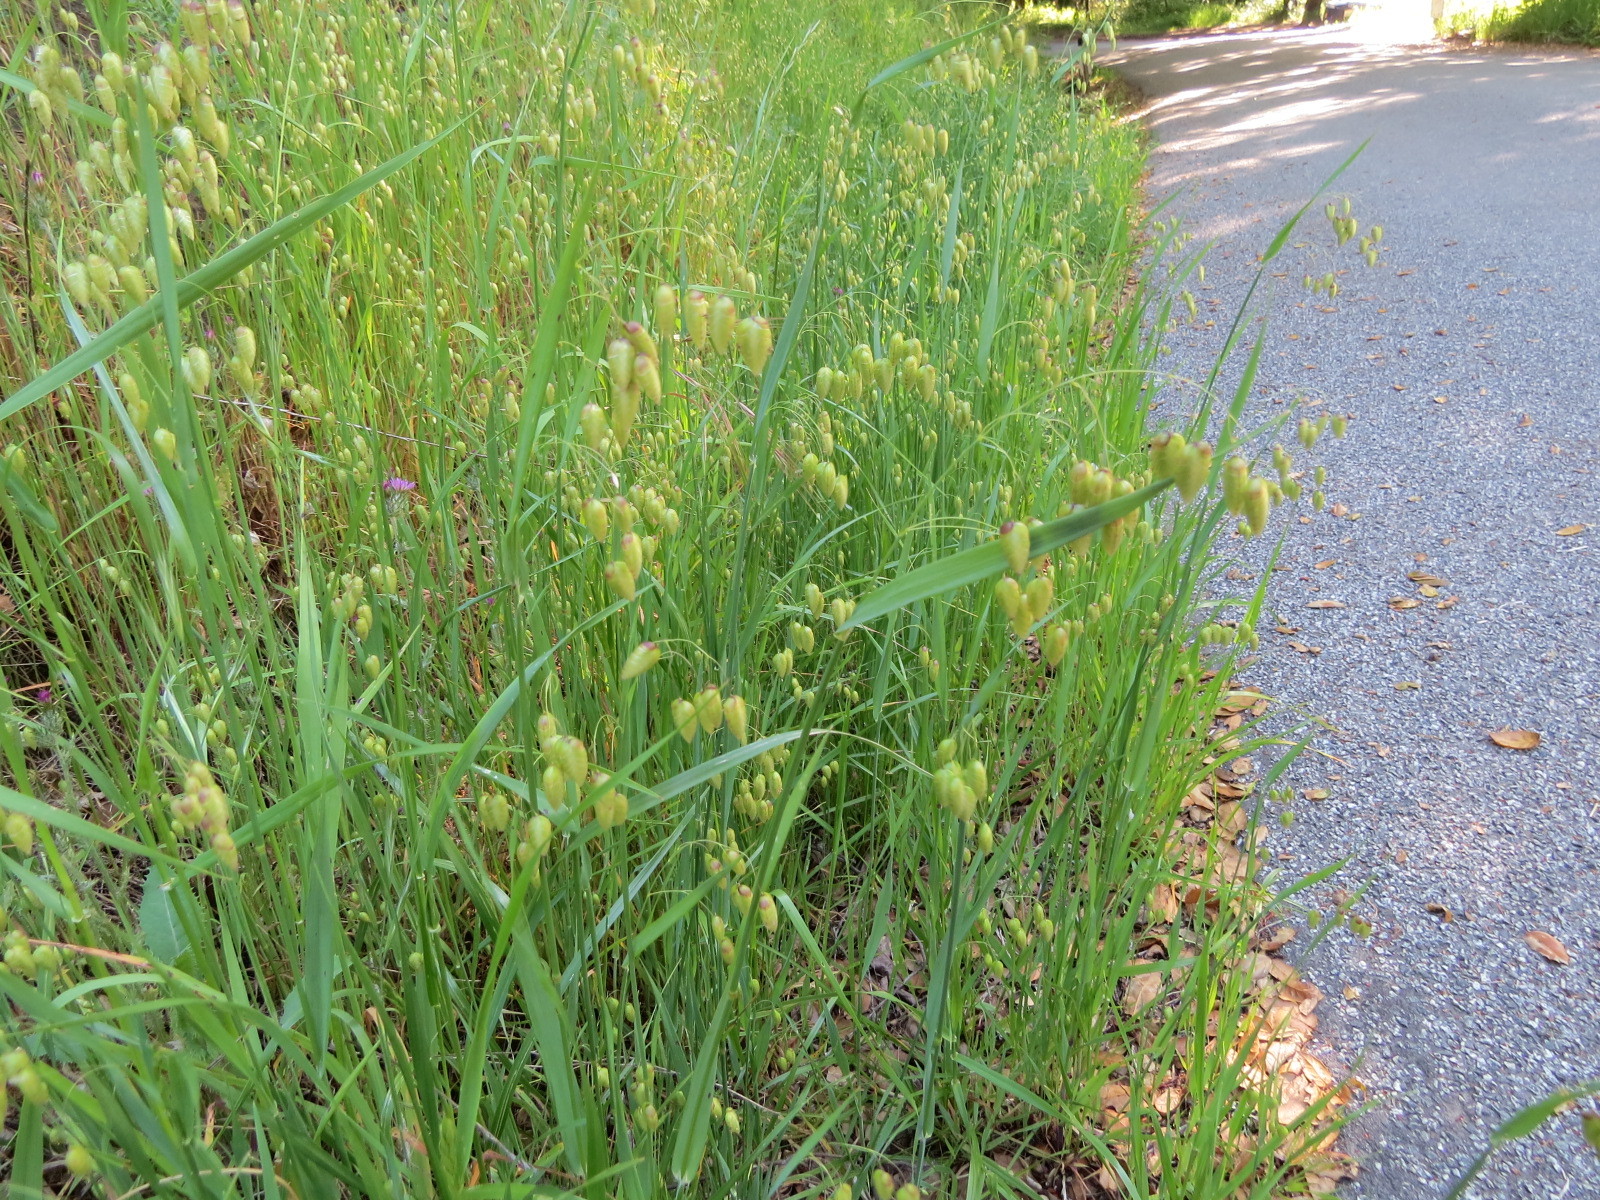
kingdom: Plantae
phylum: Tracheophyta
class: Liliopsida
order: Poales
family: Poaceae
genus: Briza
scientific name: Briza maxima
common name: Big quakinggrass
